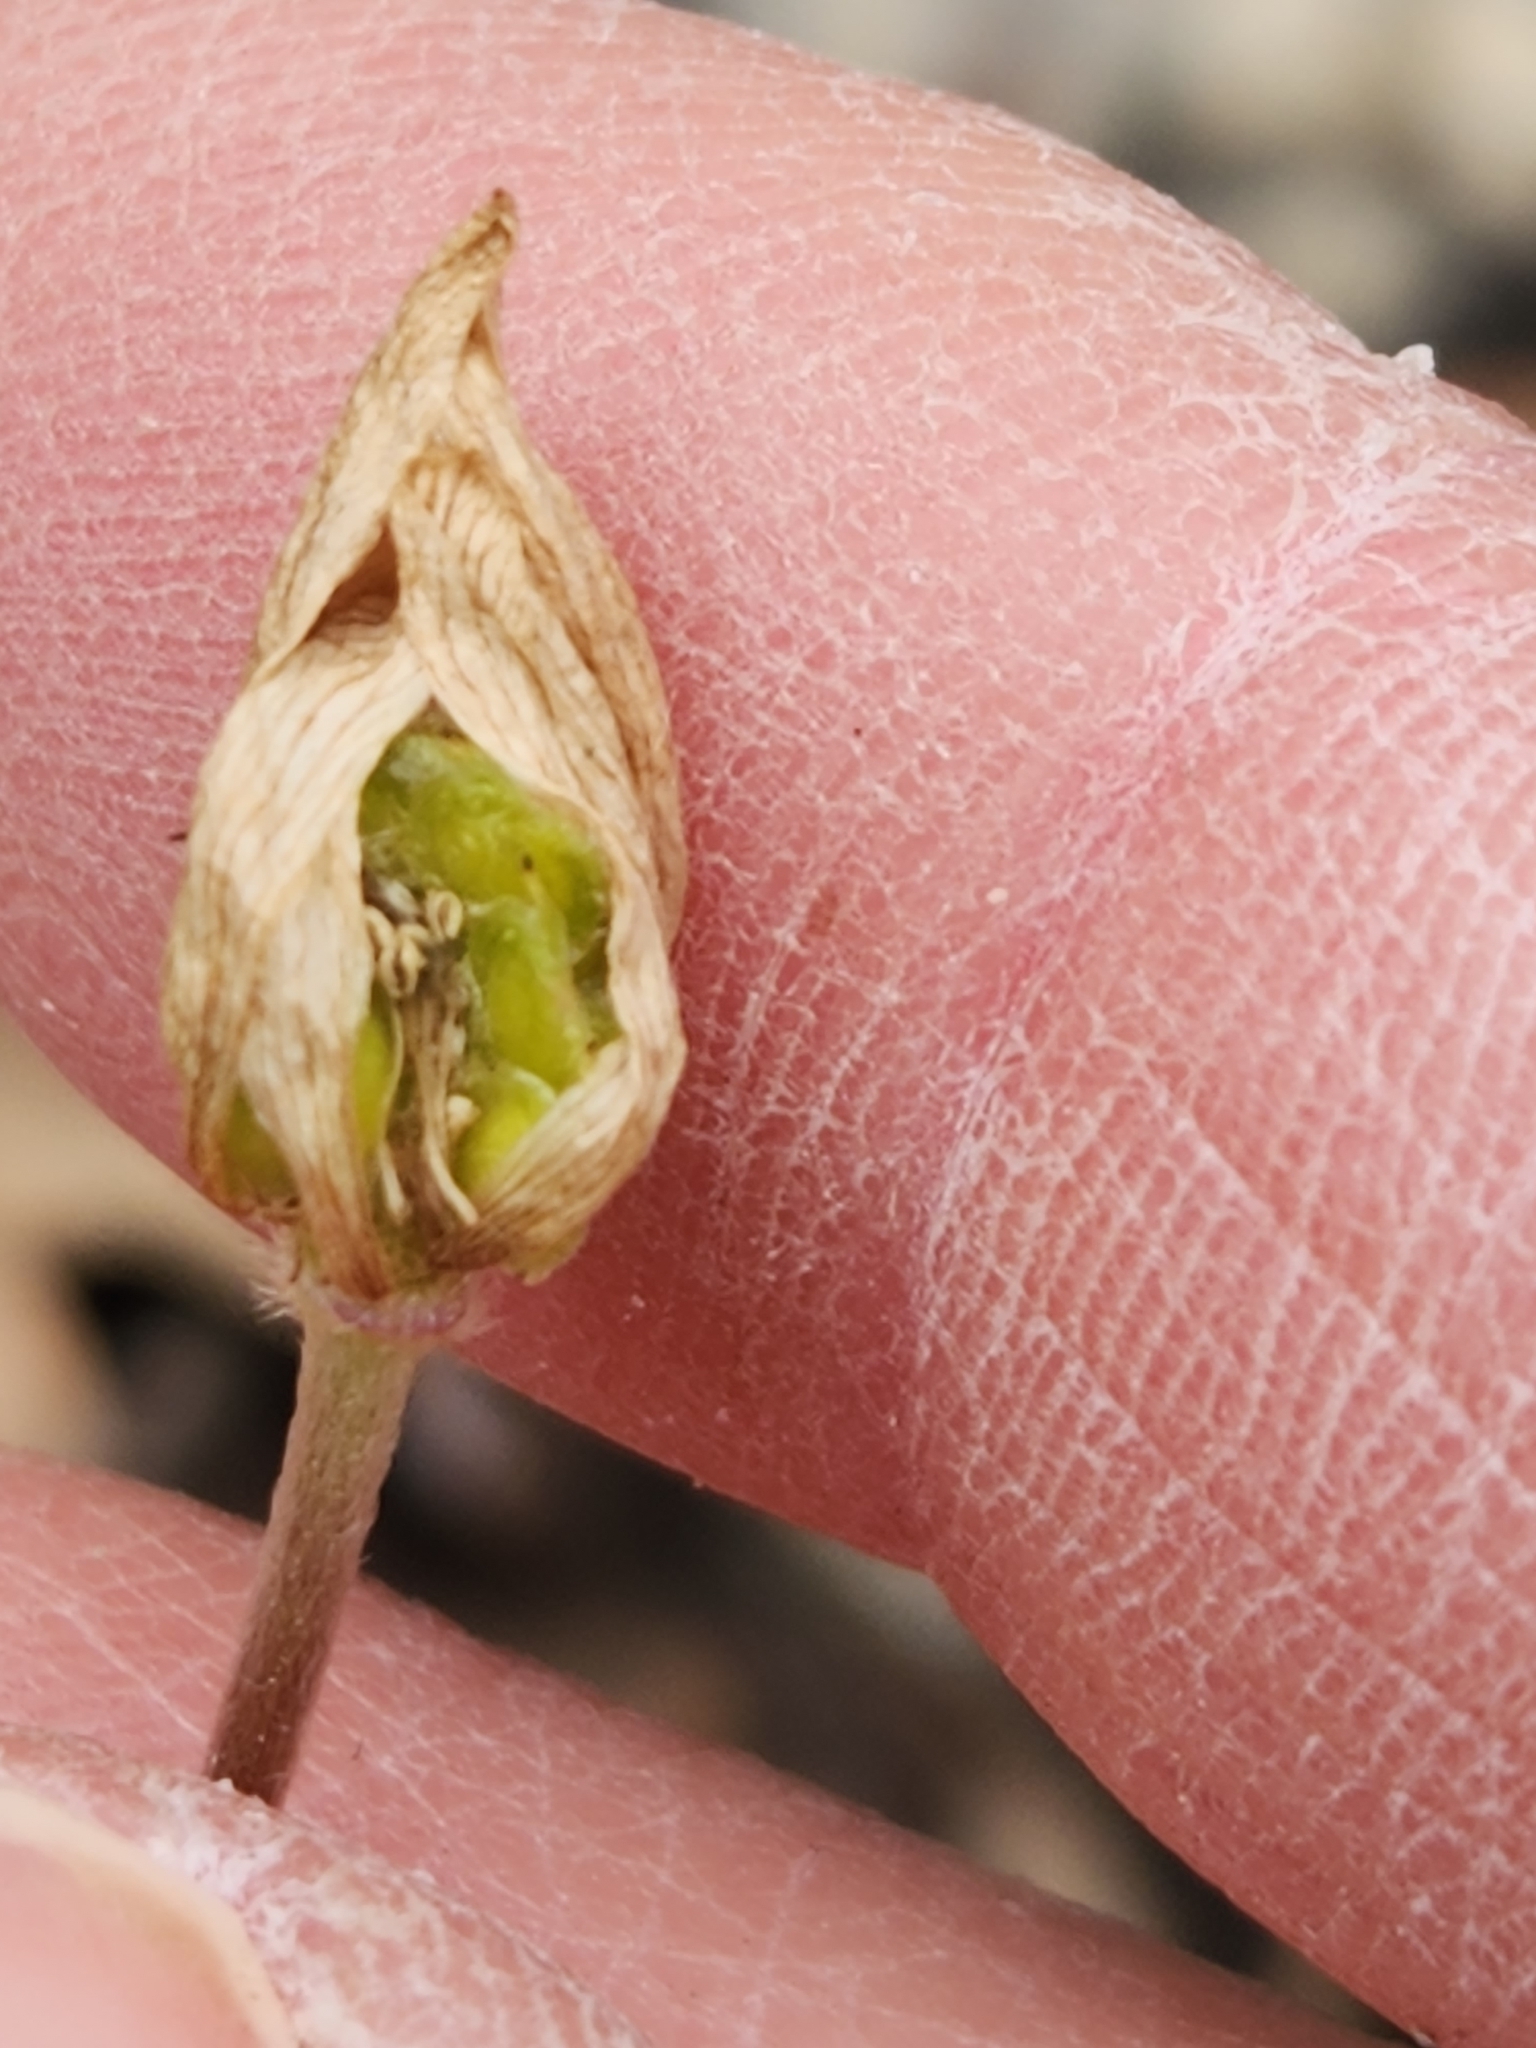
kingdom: Plantae
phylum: Tracheophyta
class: Magnoliopsida
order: Ranunculales
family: Ranunculaceae
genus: Anemone
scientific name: Anemone edwardsiana
